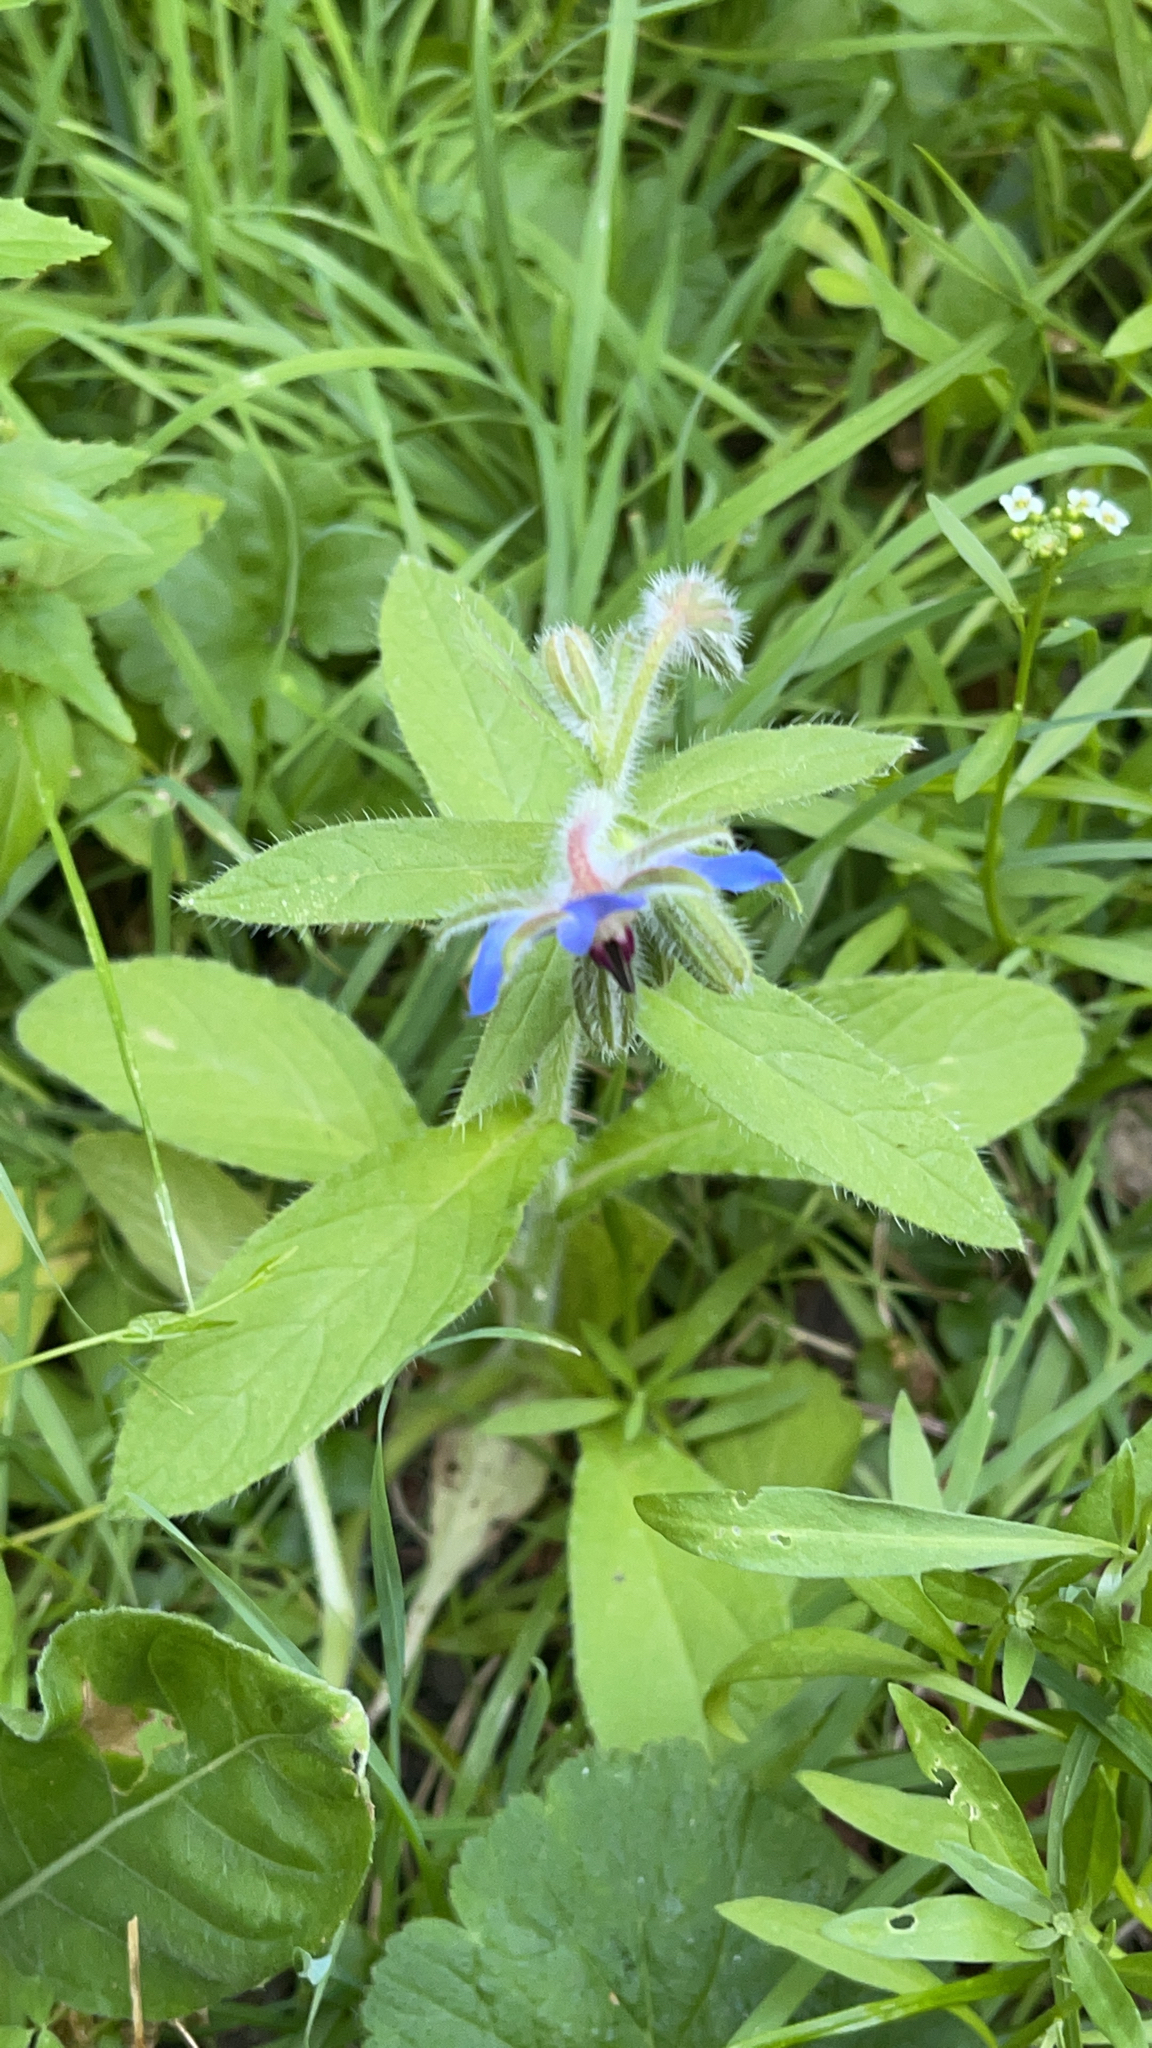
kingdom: Plantae
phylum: Tracheophyta
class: Magnoliopsida
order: Boraginales
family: Boraginaceae
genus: Borago
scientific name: Borago officinalis
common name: Borage
